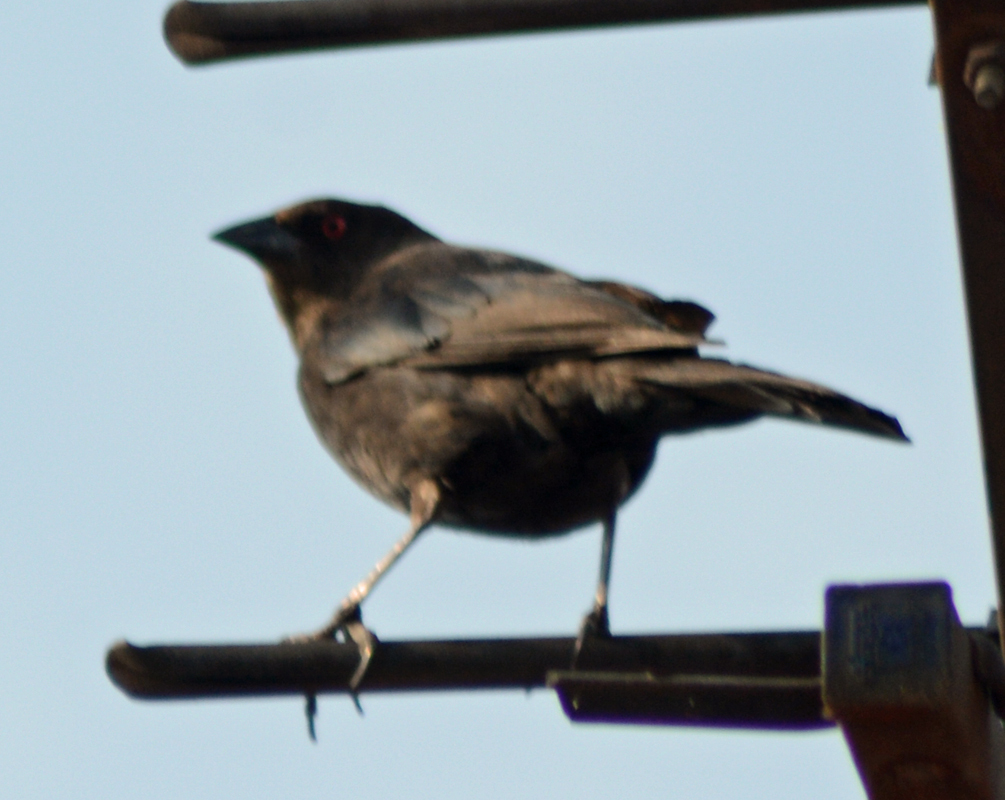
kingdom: Animalia
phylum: Chordata
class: Aves
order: Passeriformes
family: Icteridae
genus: Molothrus
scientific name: Molothrus aeneus
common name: Bronzed cowbird
